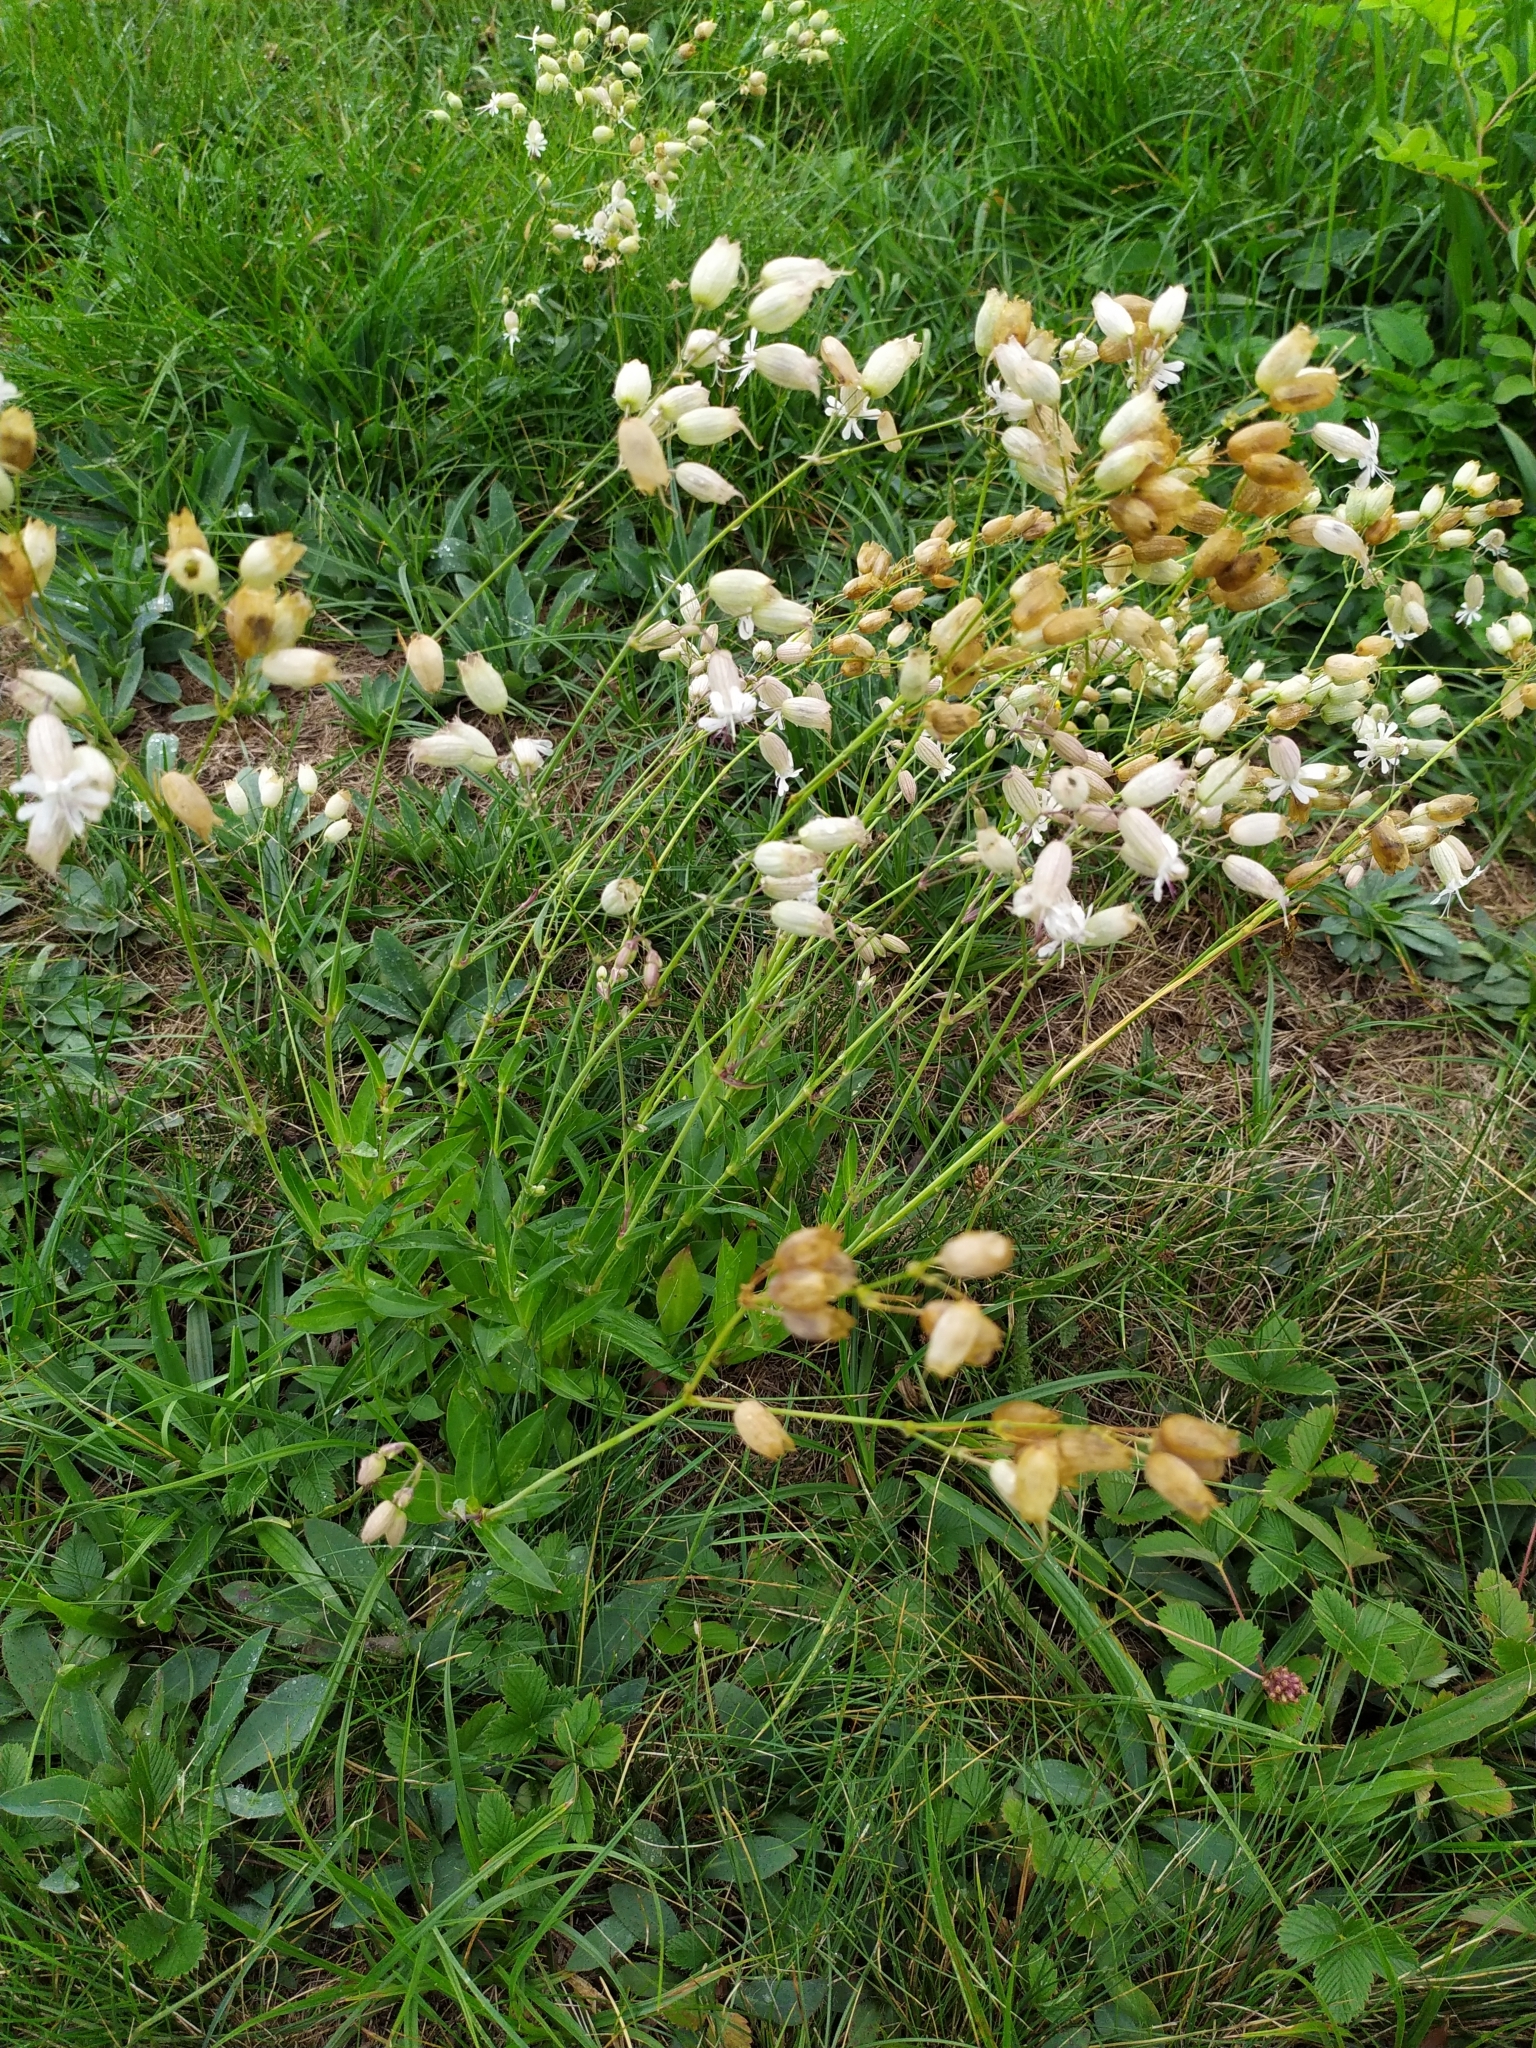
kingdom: Plantae
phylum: Tracheophyta
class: Magnoliopsida
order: Caryophyllales
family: Caryophyllaceae
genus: Silene
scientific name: Silene vulgaris
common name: Bladder campion
